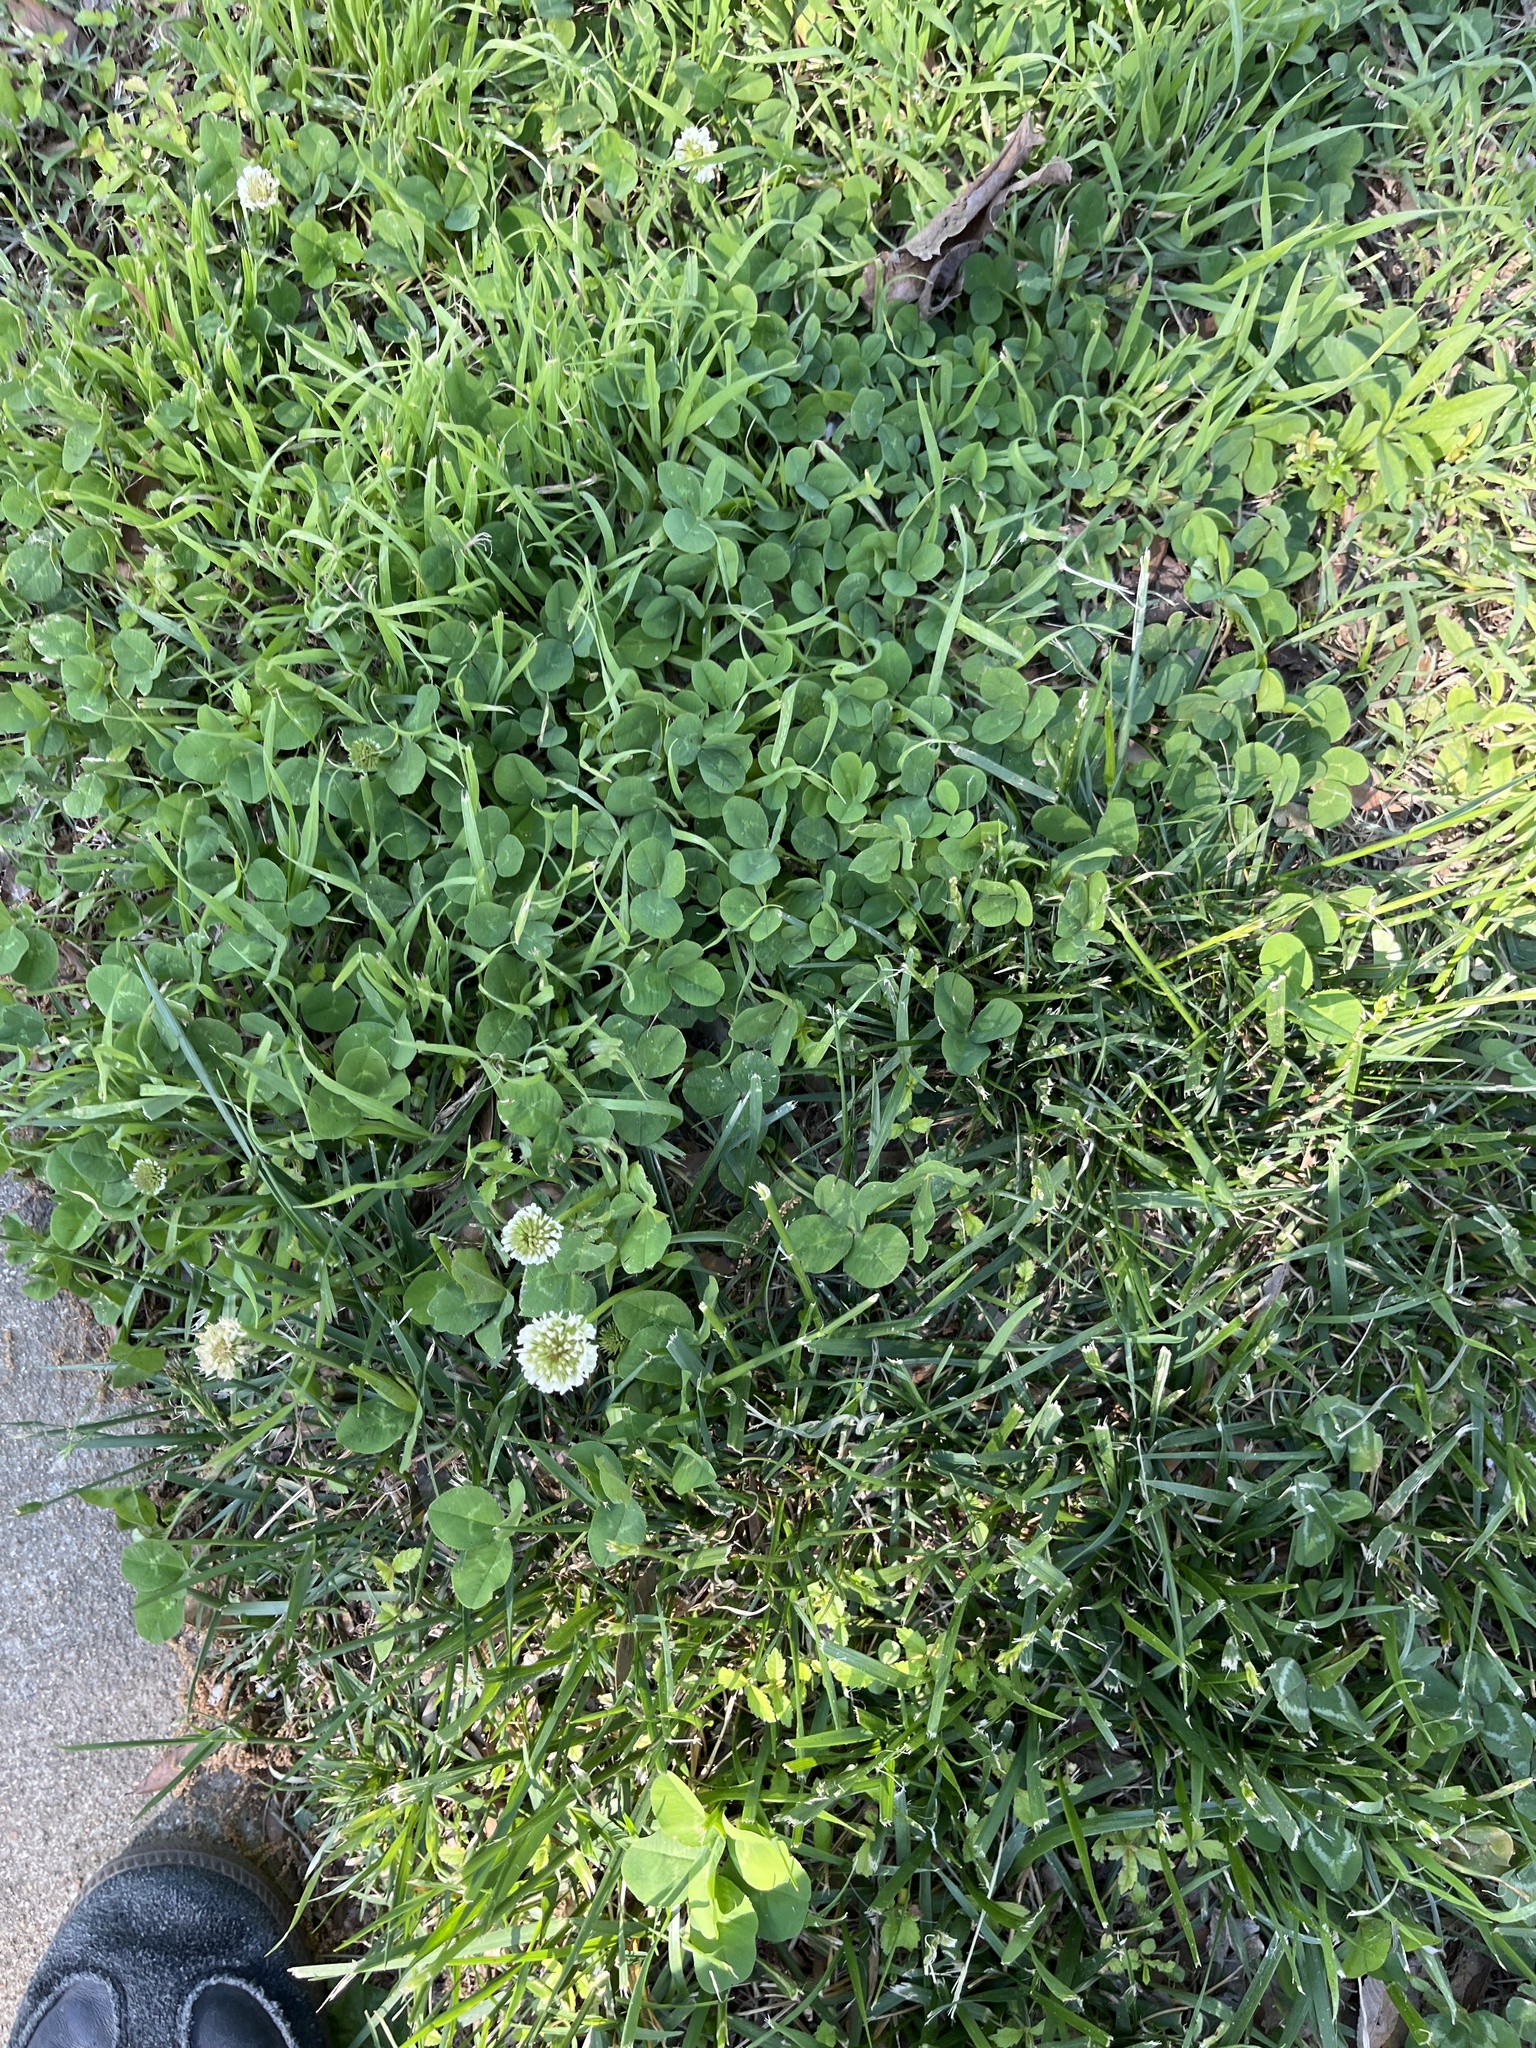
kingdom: Plantae
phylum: Tracheophyta
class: Magnoliopsida
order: Fabales
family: Fabaceae
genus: Trifolium
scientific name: Trifolium repens
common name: White clover
